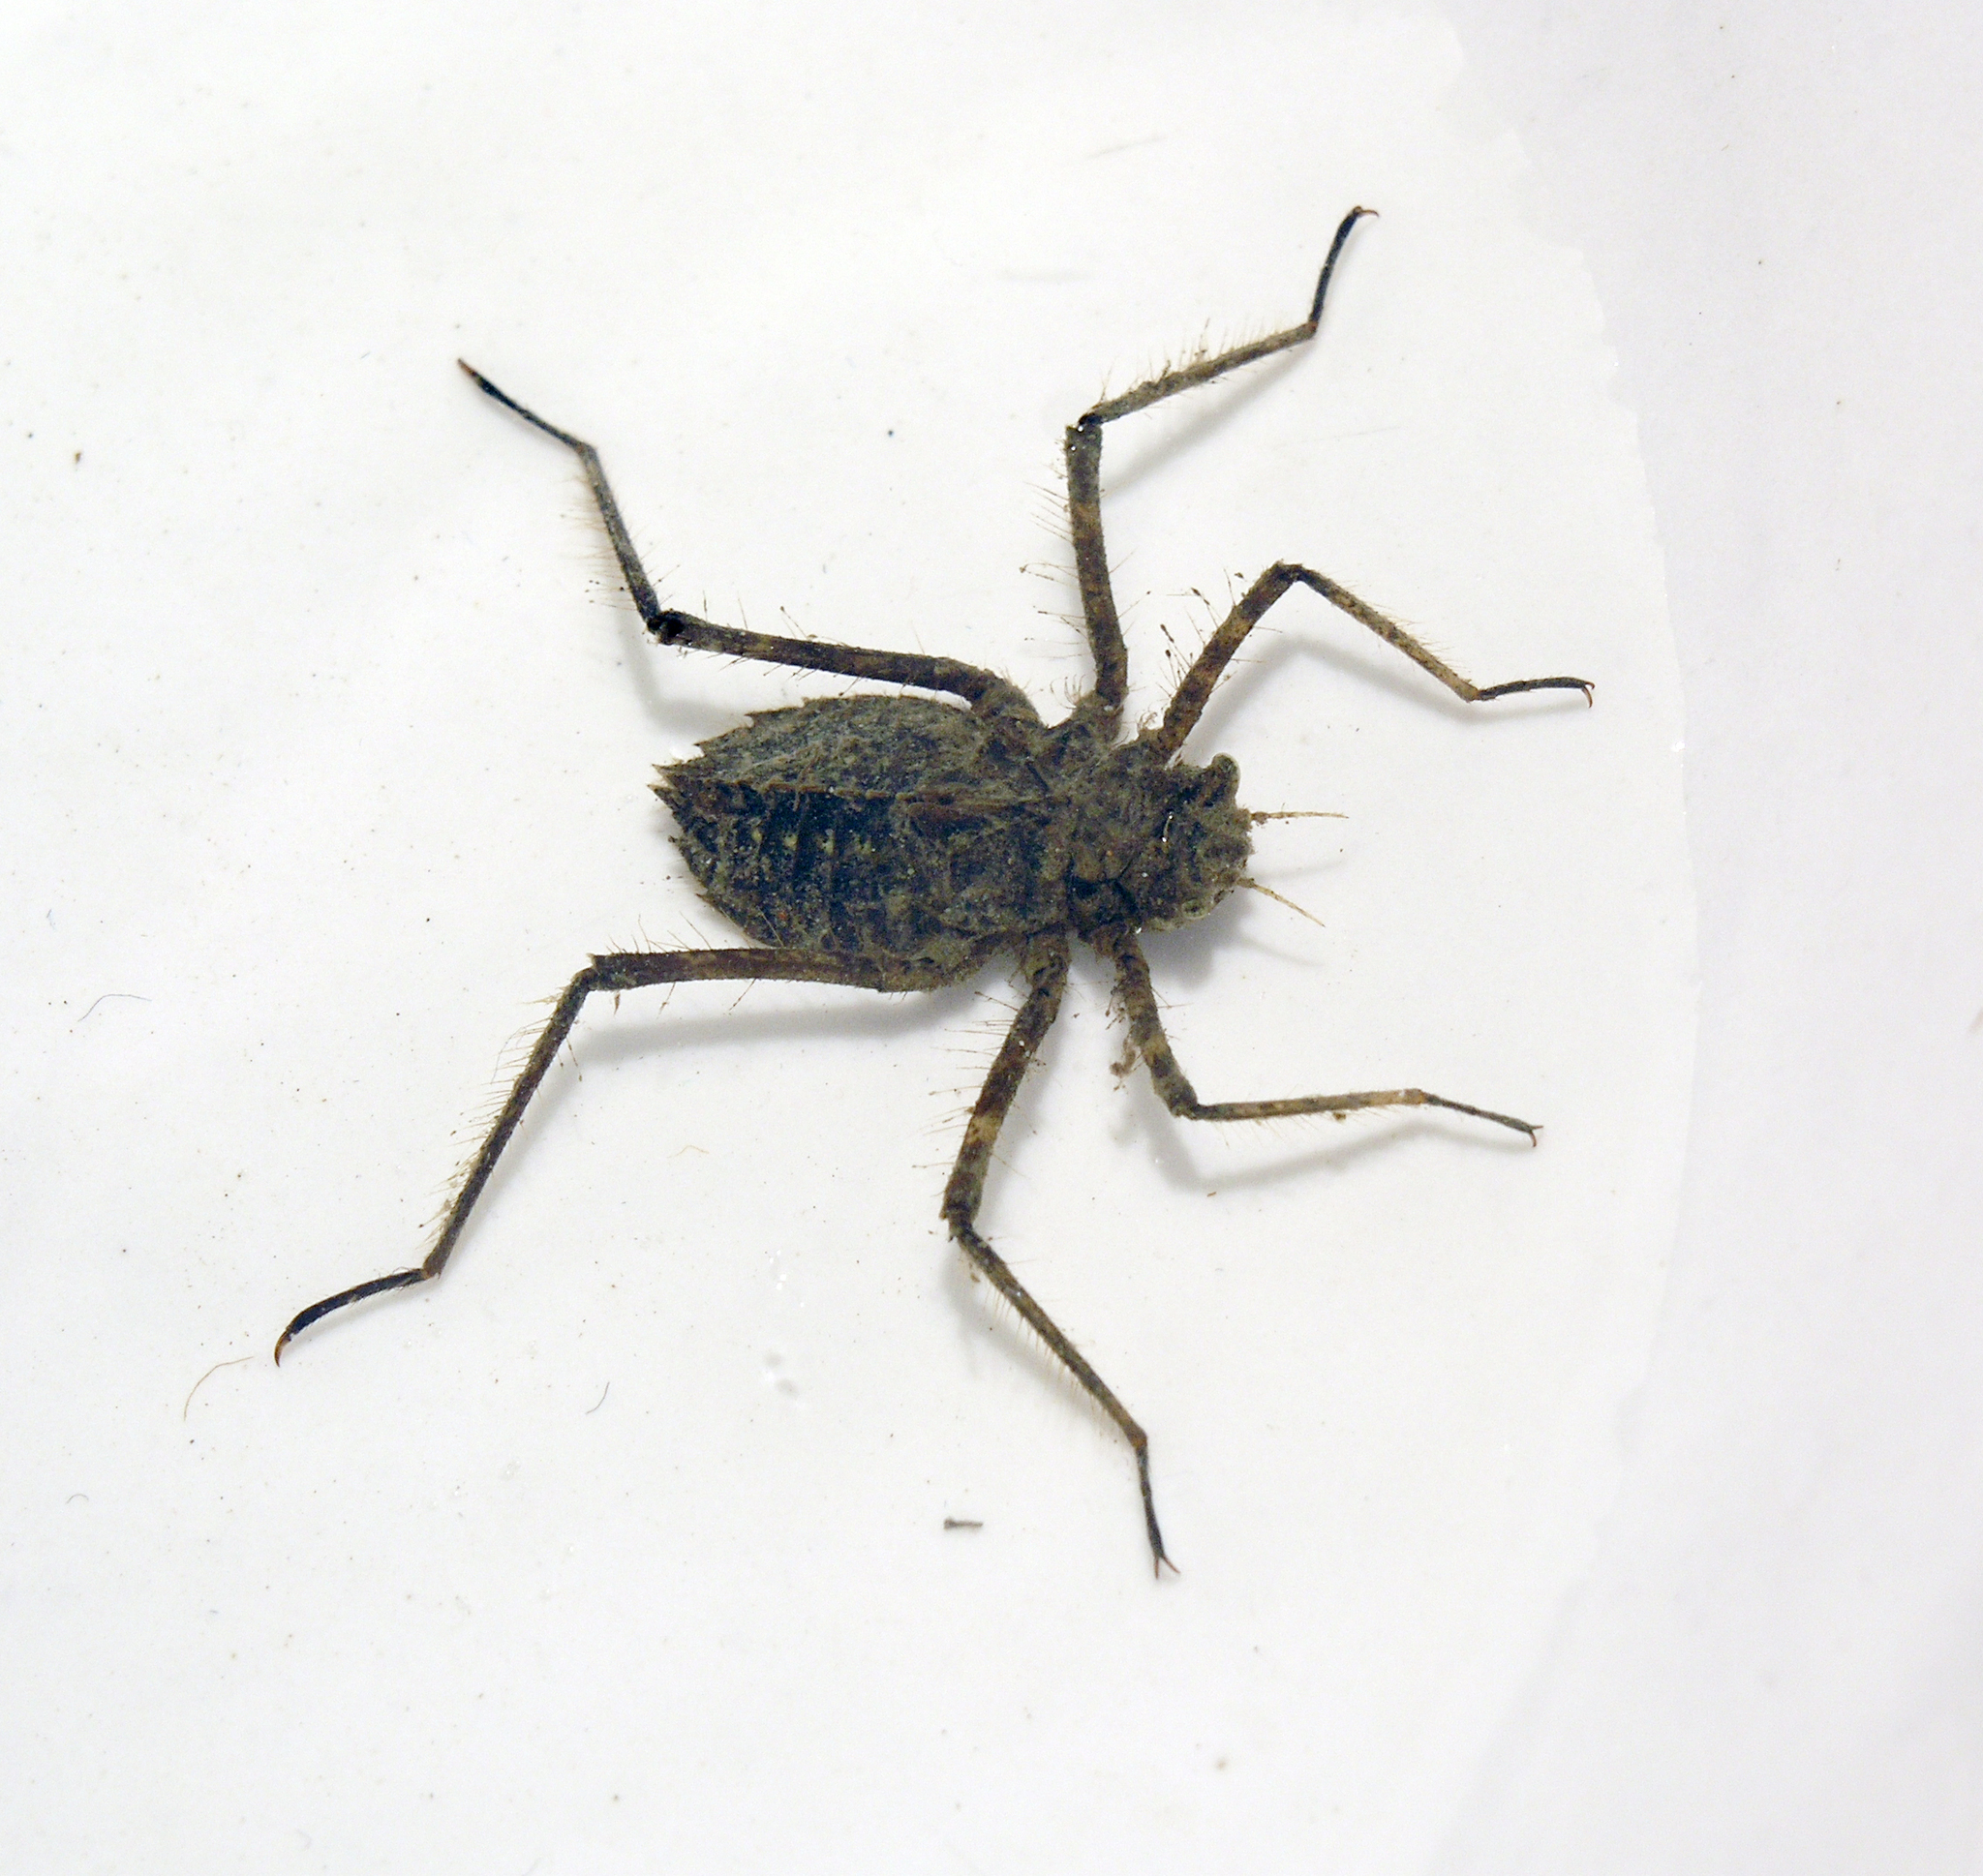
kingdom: Animalia
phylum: Arthropoda
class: Insecta
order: Odonata
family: Macromiidae
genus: Macromia
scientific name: Macromia amphigena
